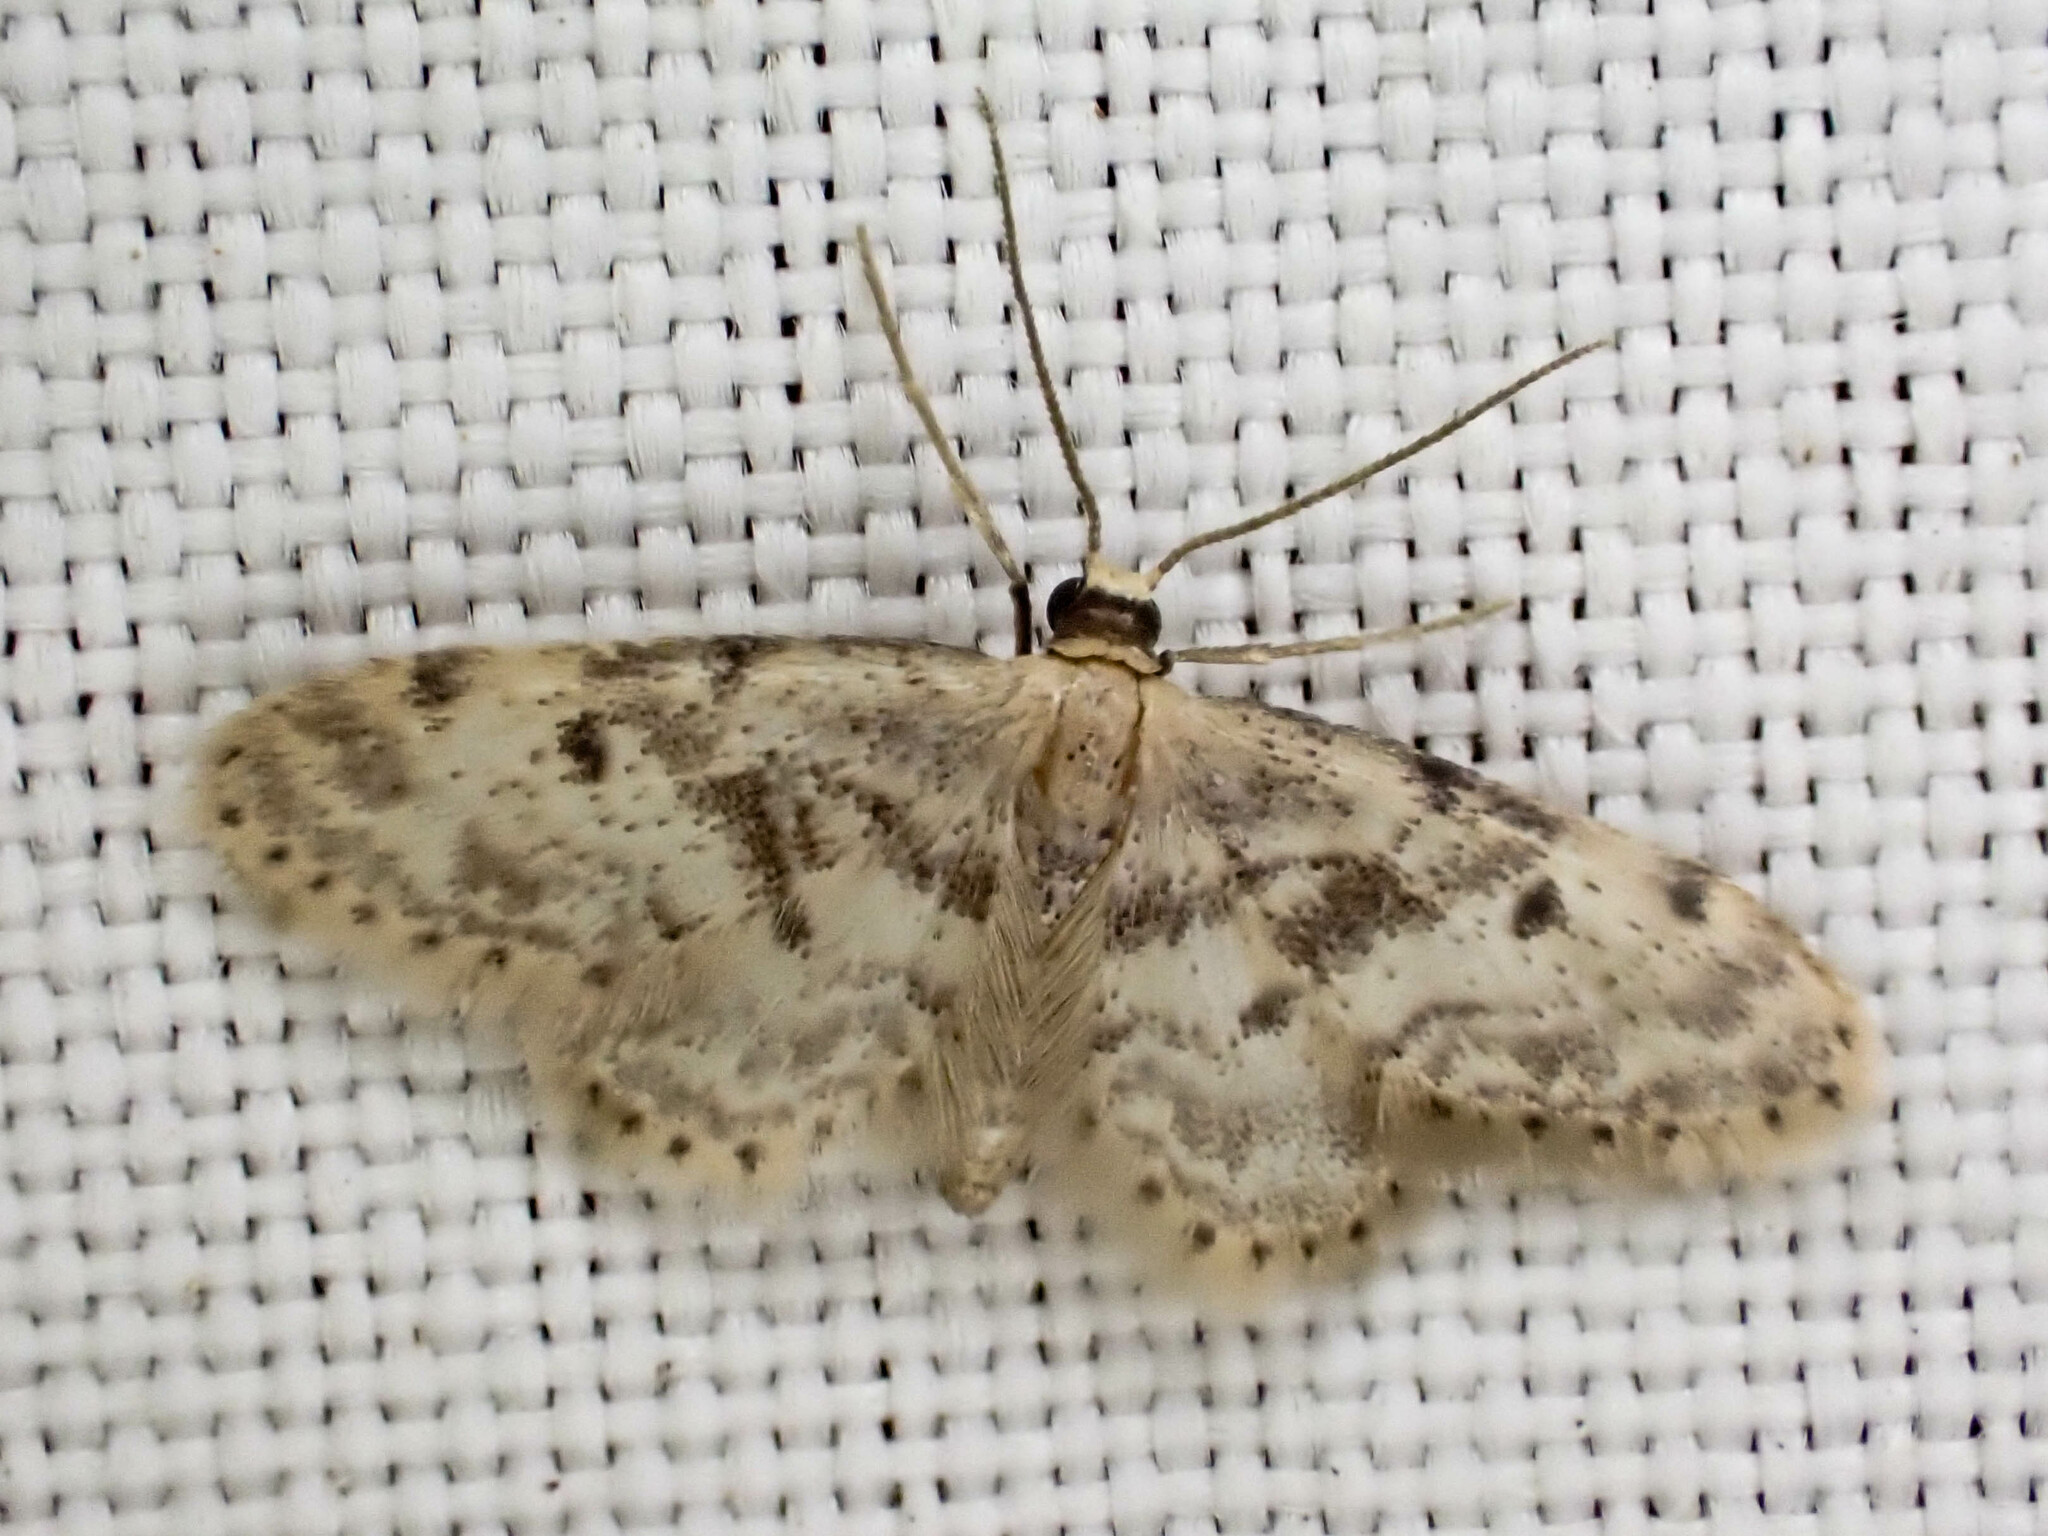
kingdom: Animalia
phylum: Arthropoda
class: Insecta
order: Lepidoptera
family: Geometridae
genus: Idaea
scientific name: Idaea bonifata
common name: Fortunate wave
